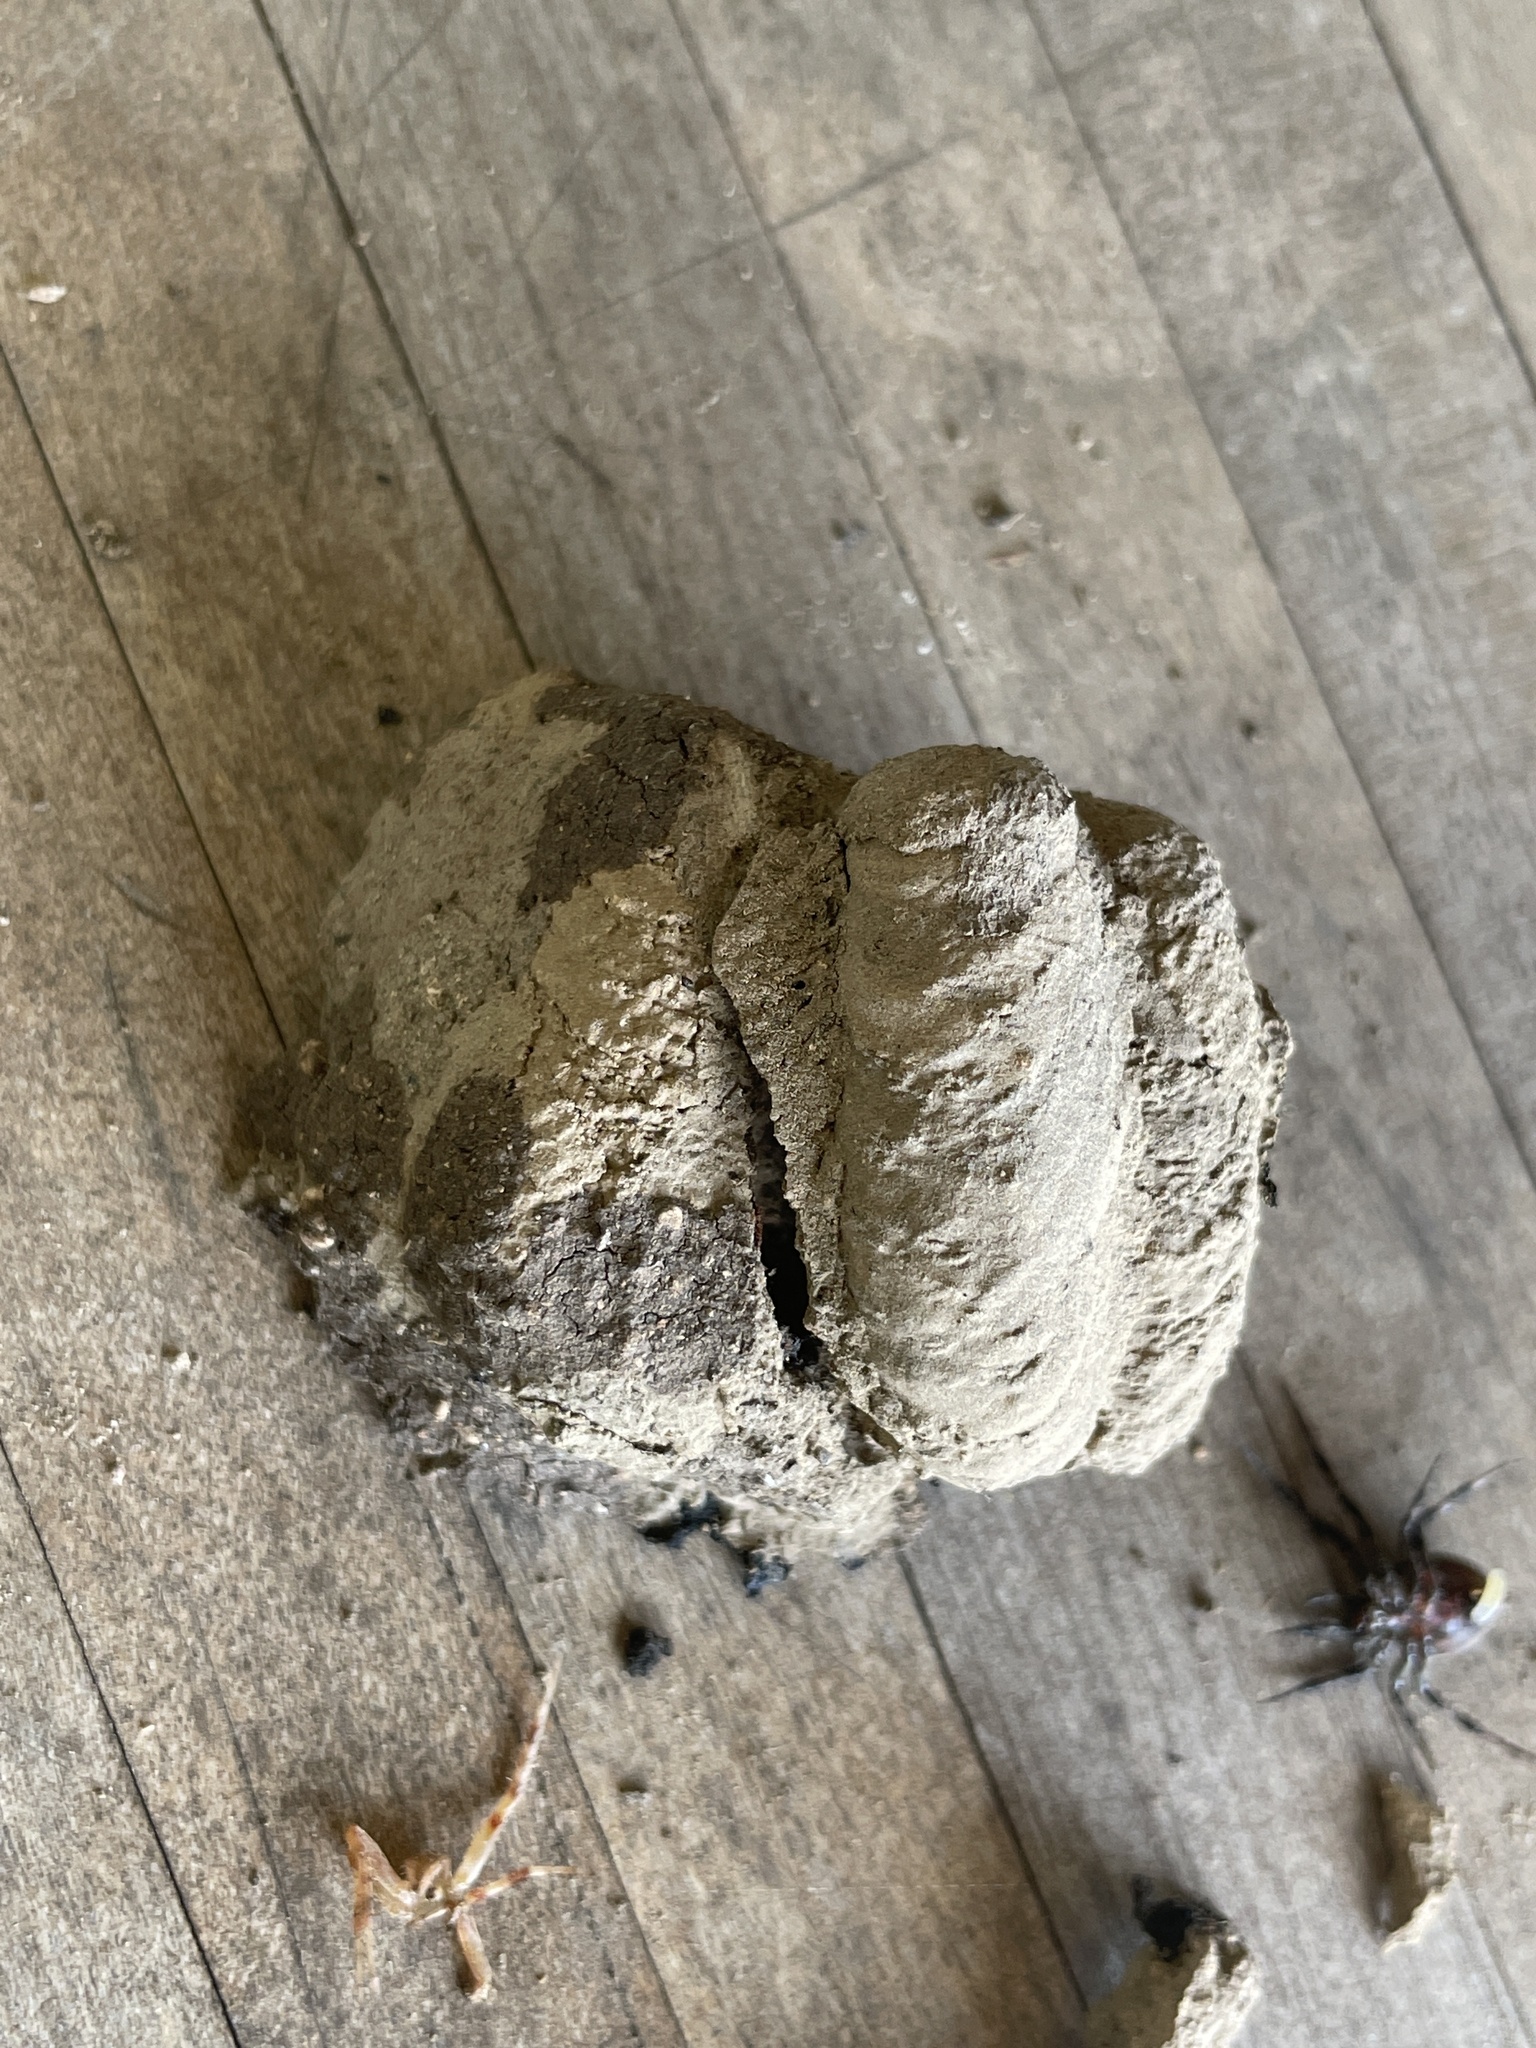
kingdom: Animalia
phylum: Arthropoda
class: Insecta
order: Hymenoptera
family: Sphecidae
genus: Sceliphron
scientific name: Sceliphron
